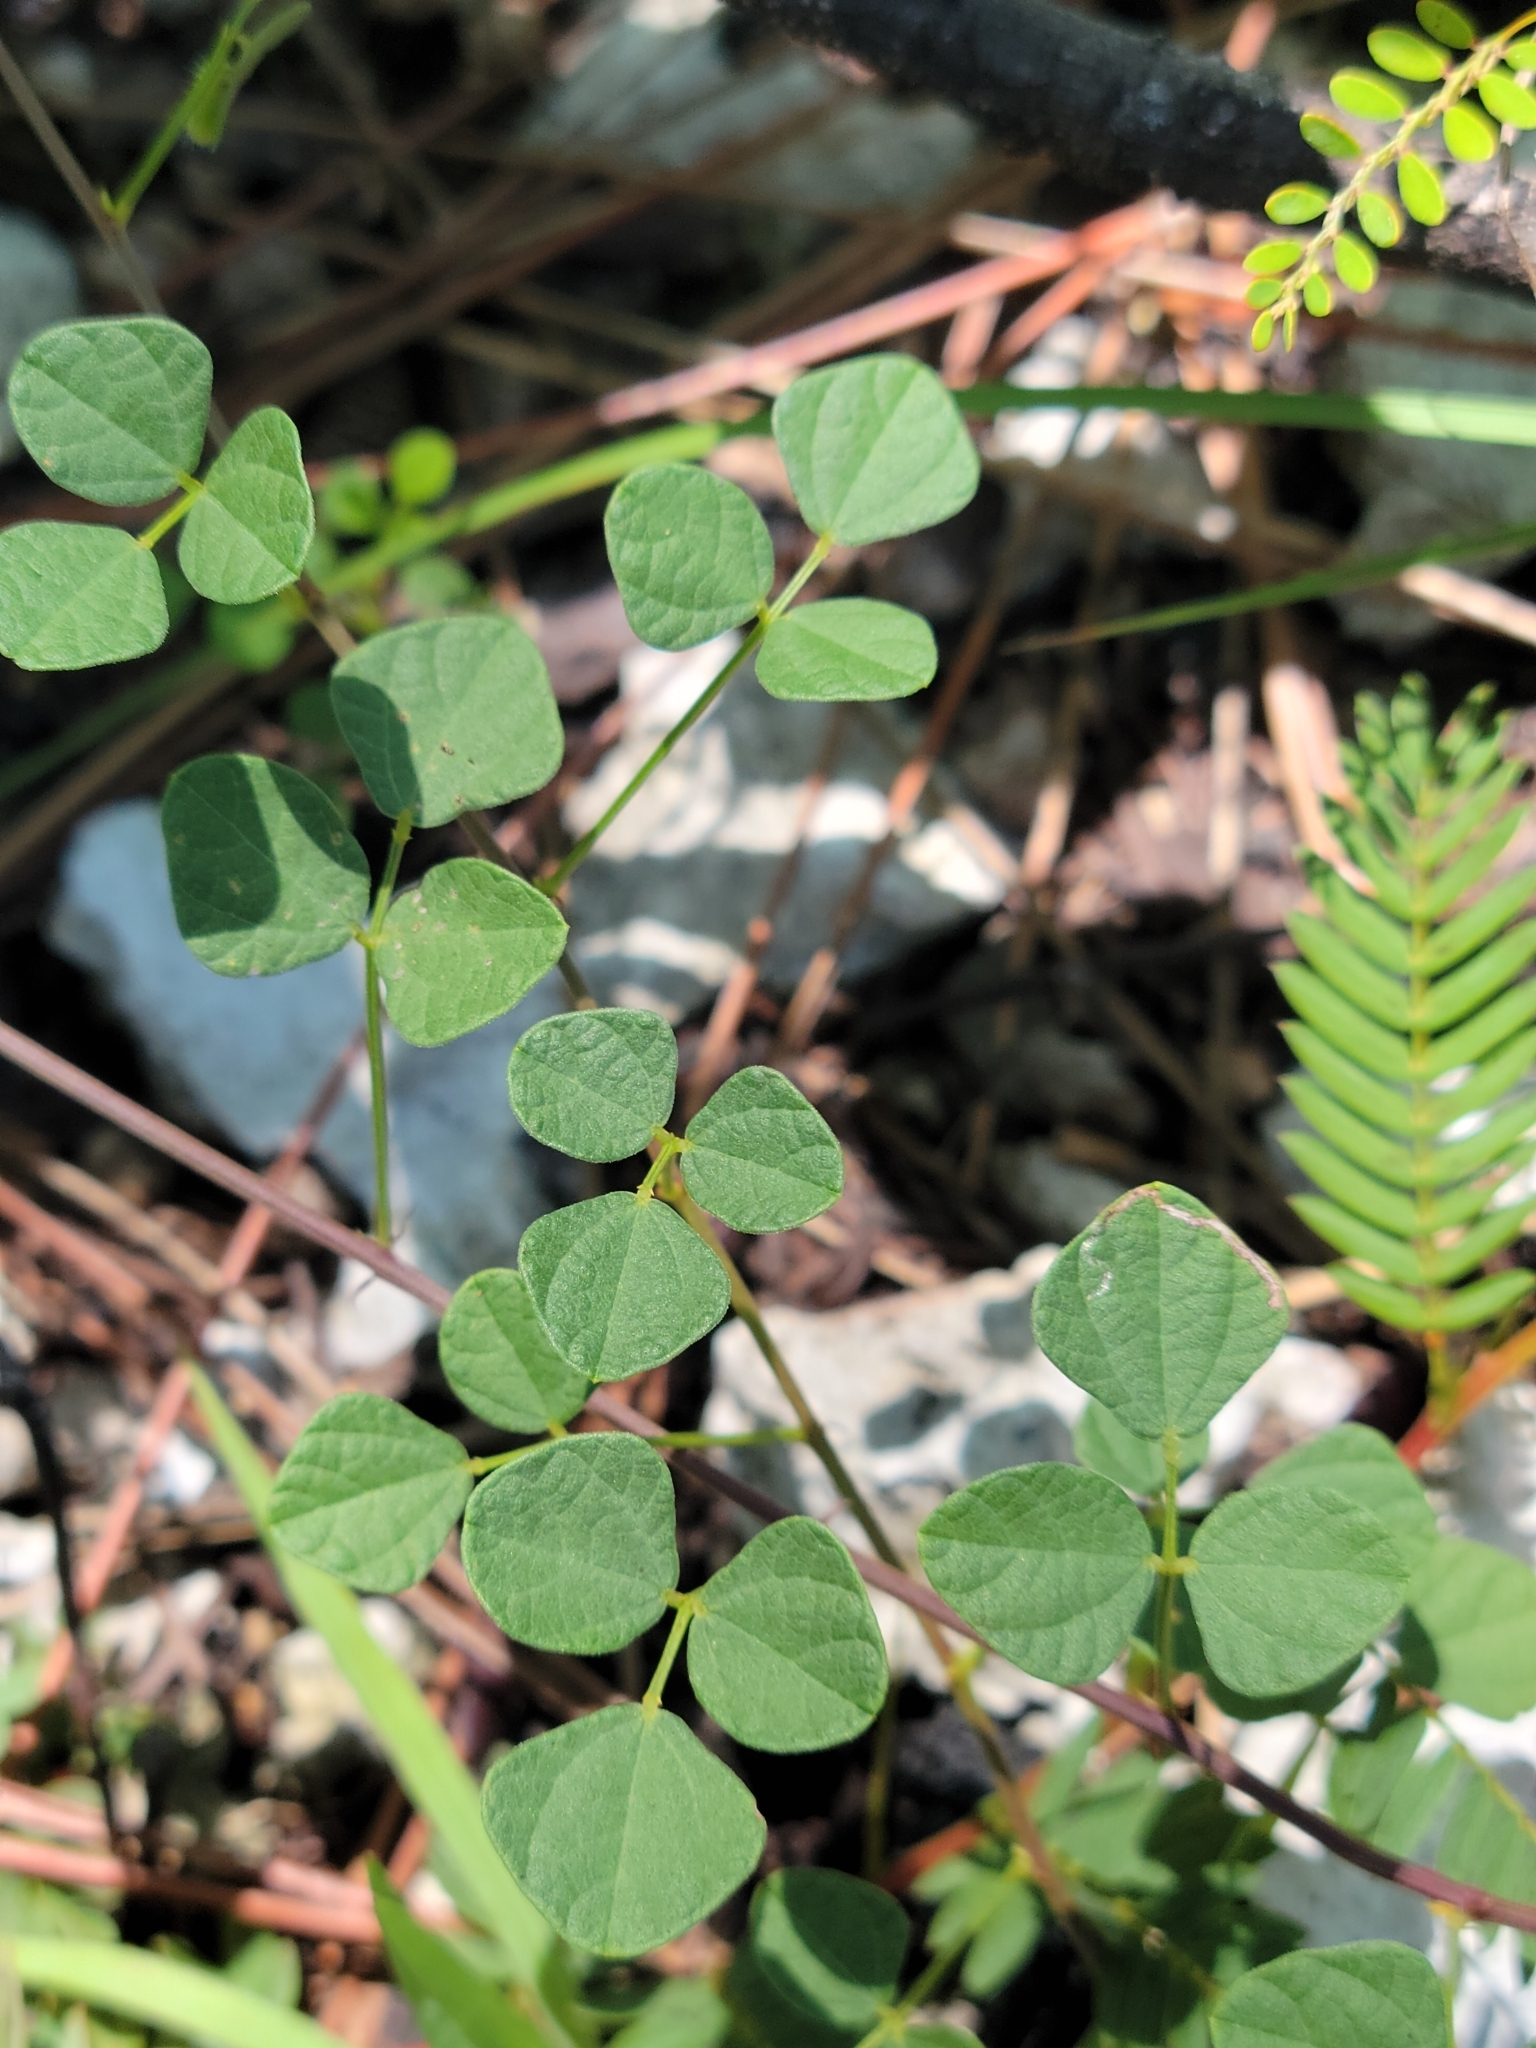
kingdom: Plantae
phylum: Tracheophyta
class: Magnoliopsida
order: Fabales
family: Fabaceae
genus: Rhynchosia
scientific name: Rhynchosia minima
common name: Least snoutbean
